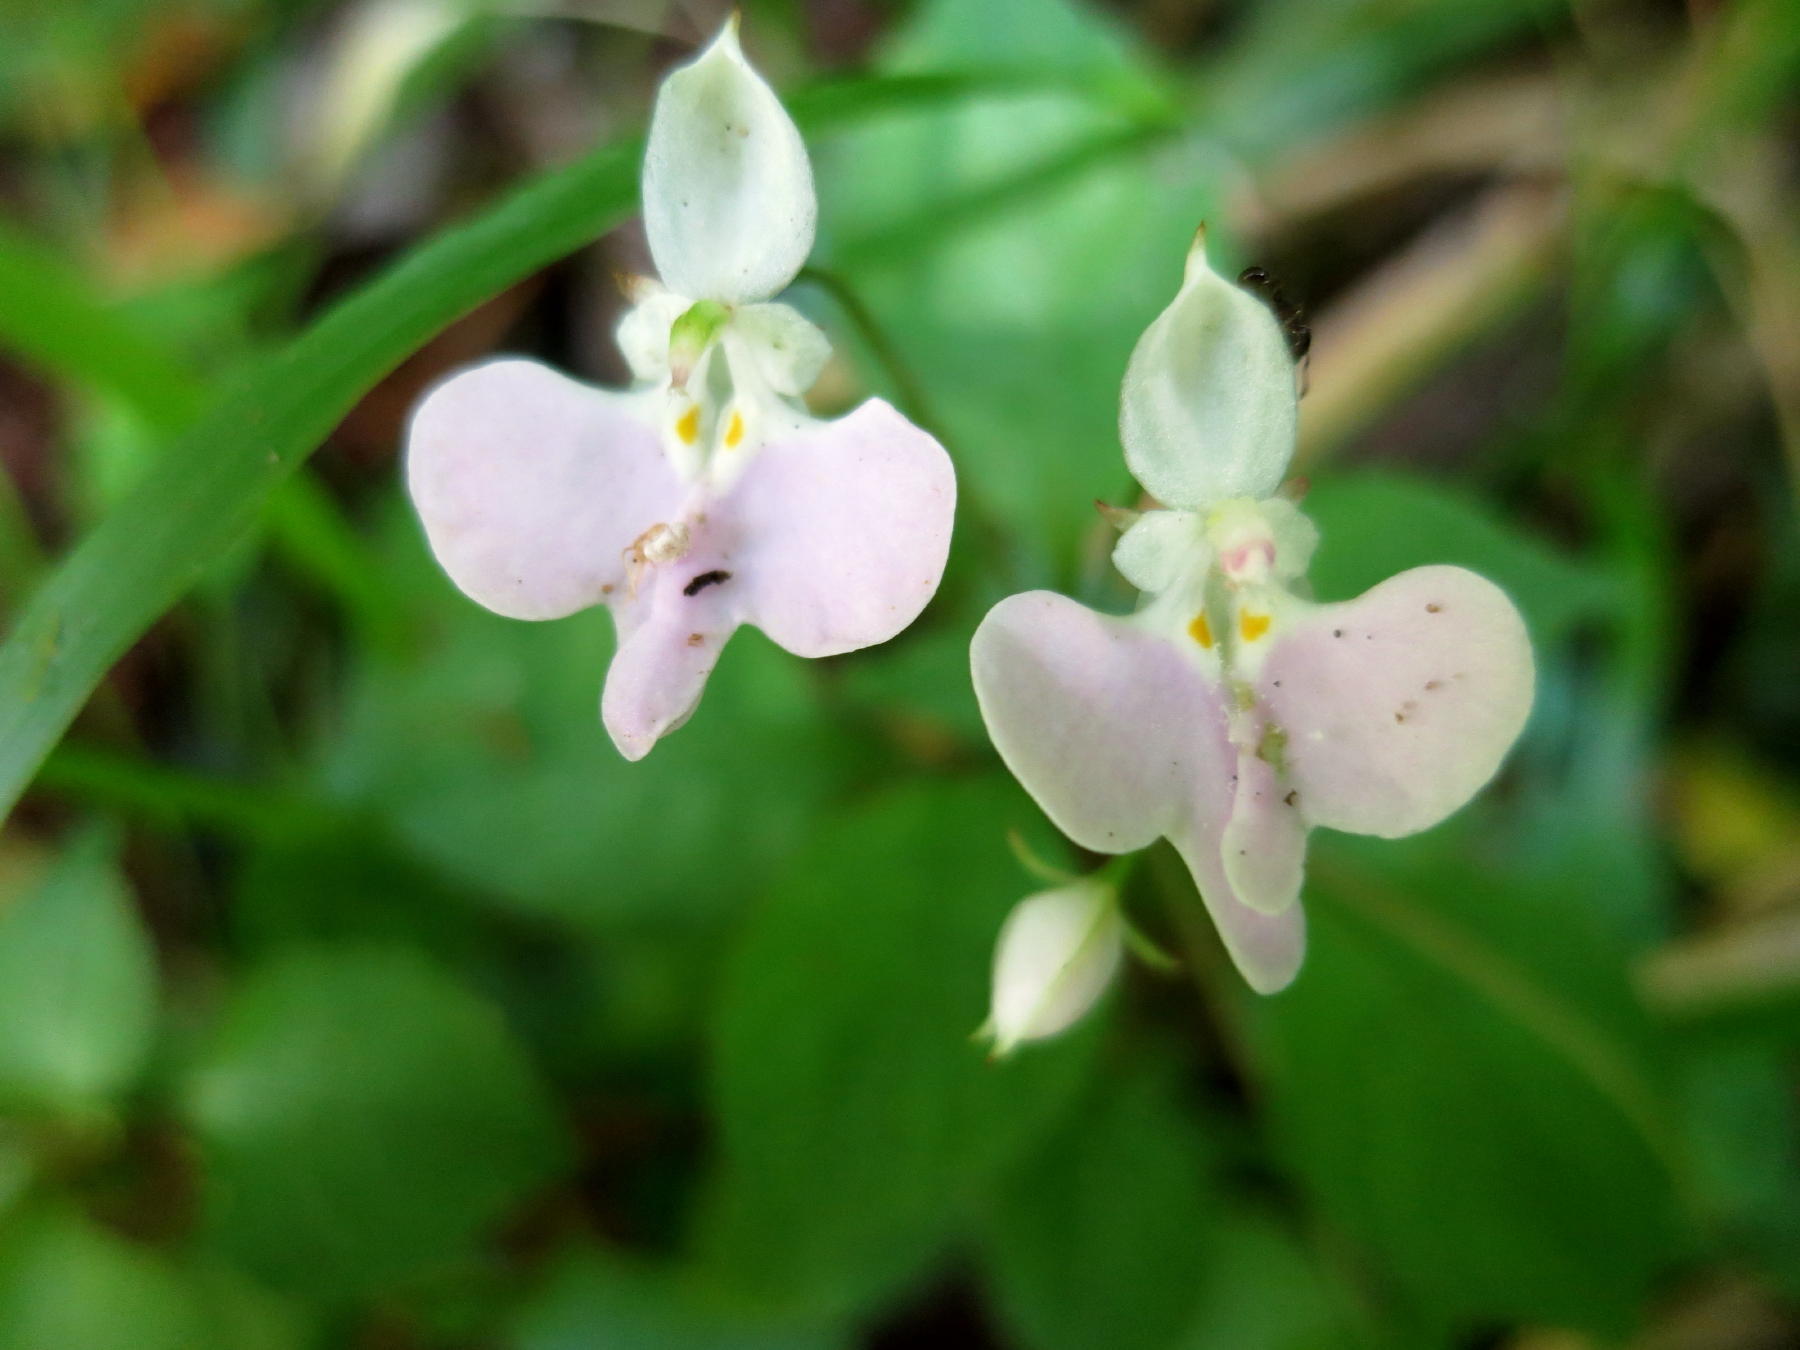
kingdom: Plantae
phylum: Tracheophyta
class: Magnoliopsida
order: Ericales
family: Balsaminaceae
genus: Impatiens
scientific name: Impatiens hochstetteri
